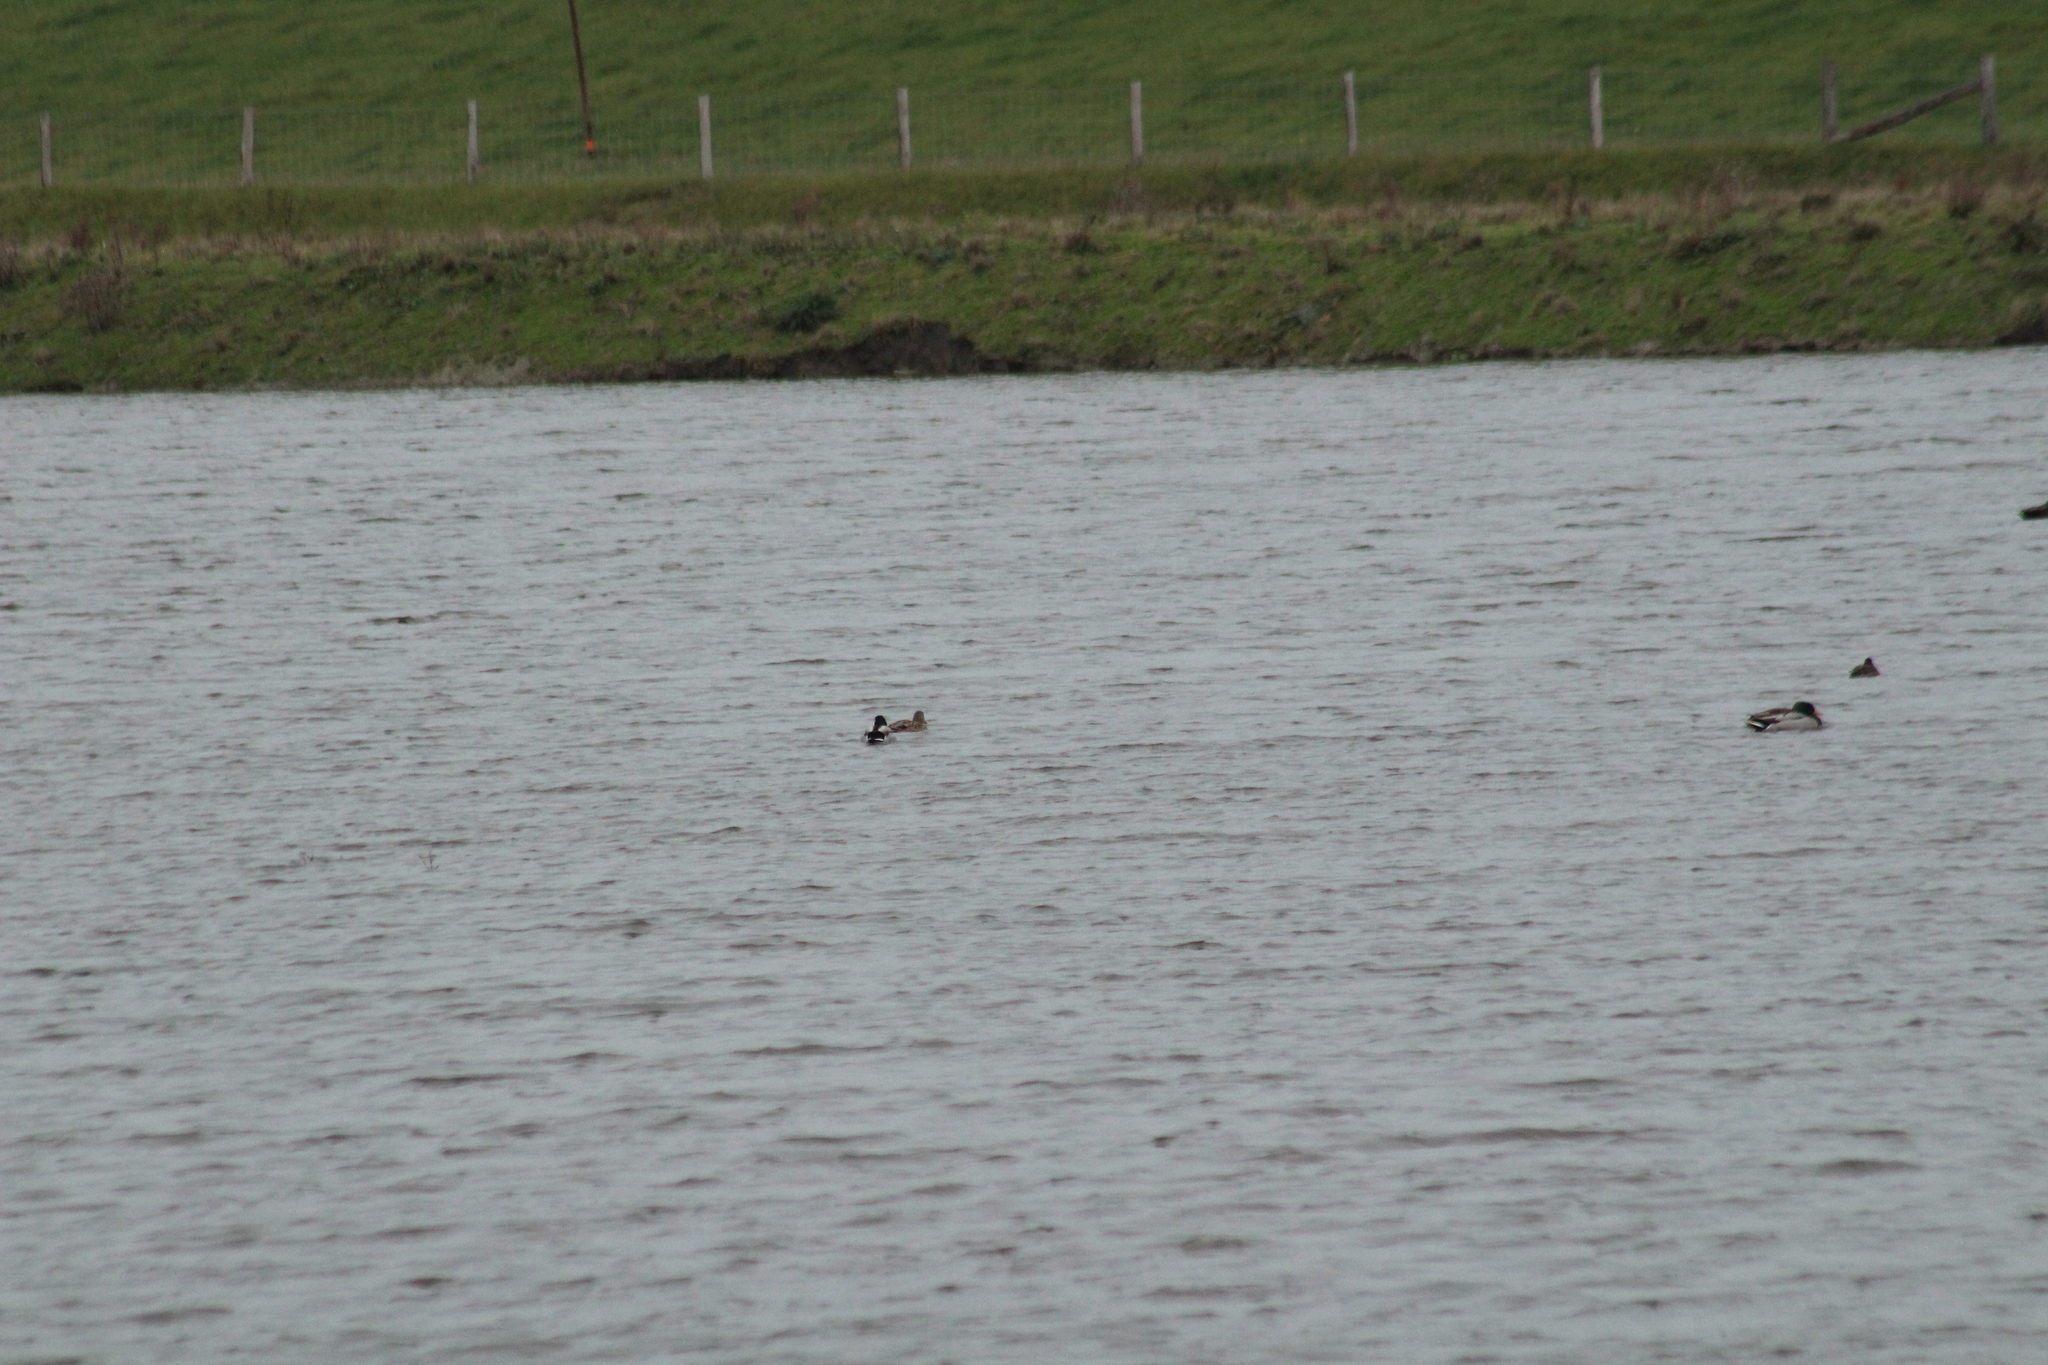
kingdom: Animalia
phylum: Chordata
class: Aves
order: Anseriformes
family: Anatidae
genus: Anas
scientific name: Anas platyrhynchos
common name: Mallard
